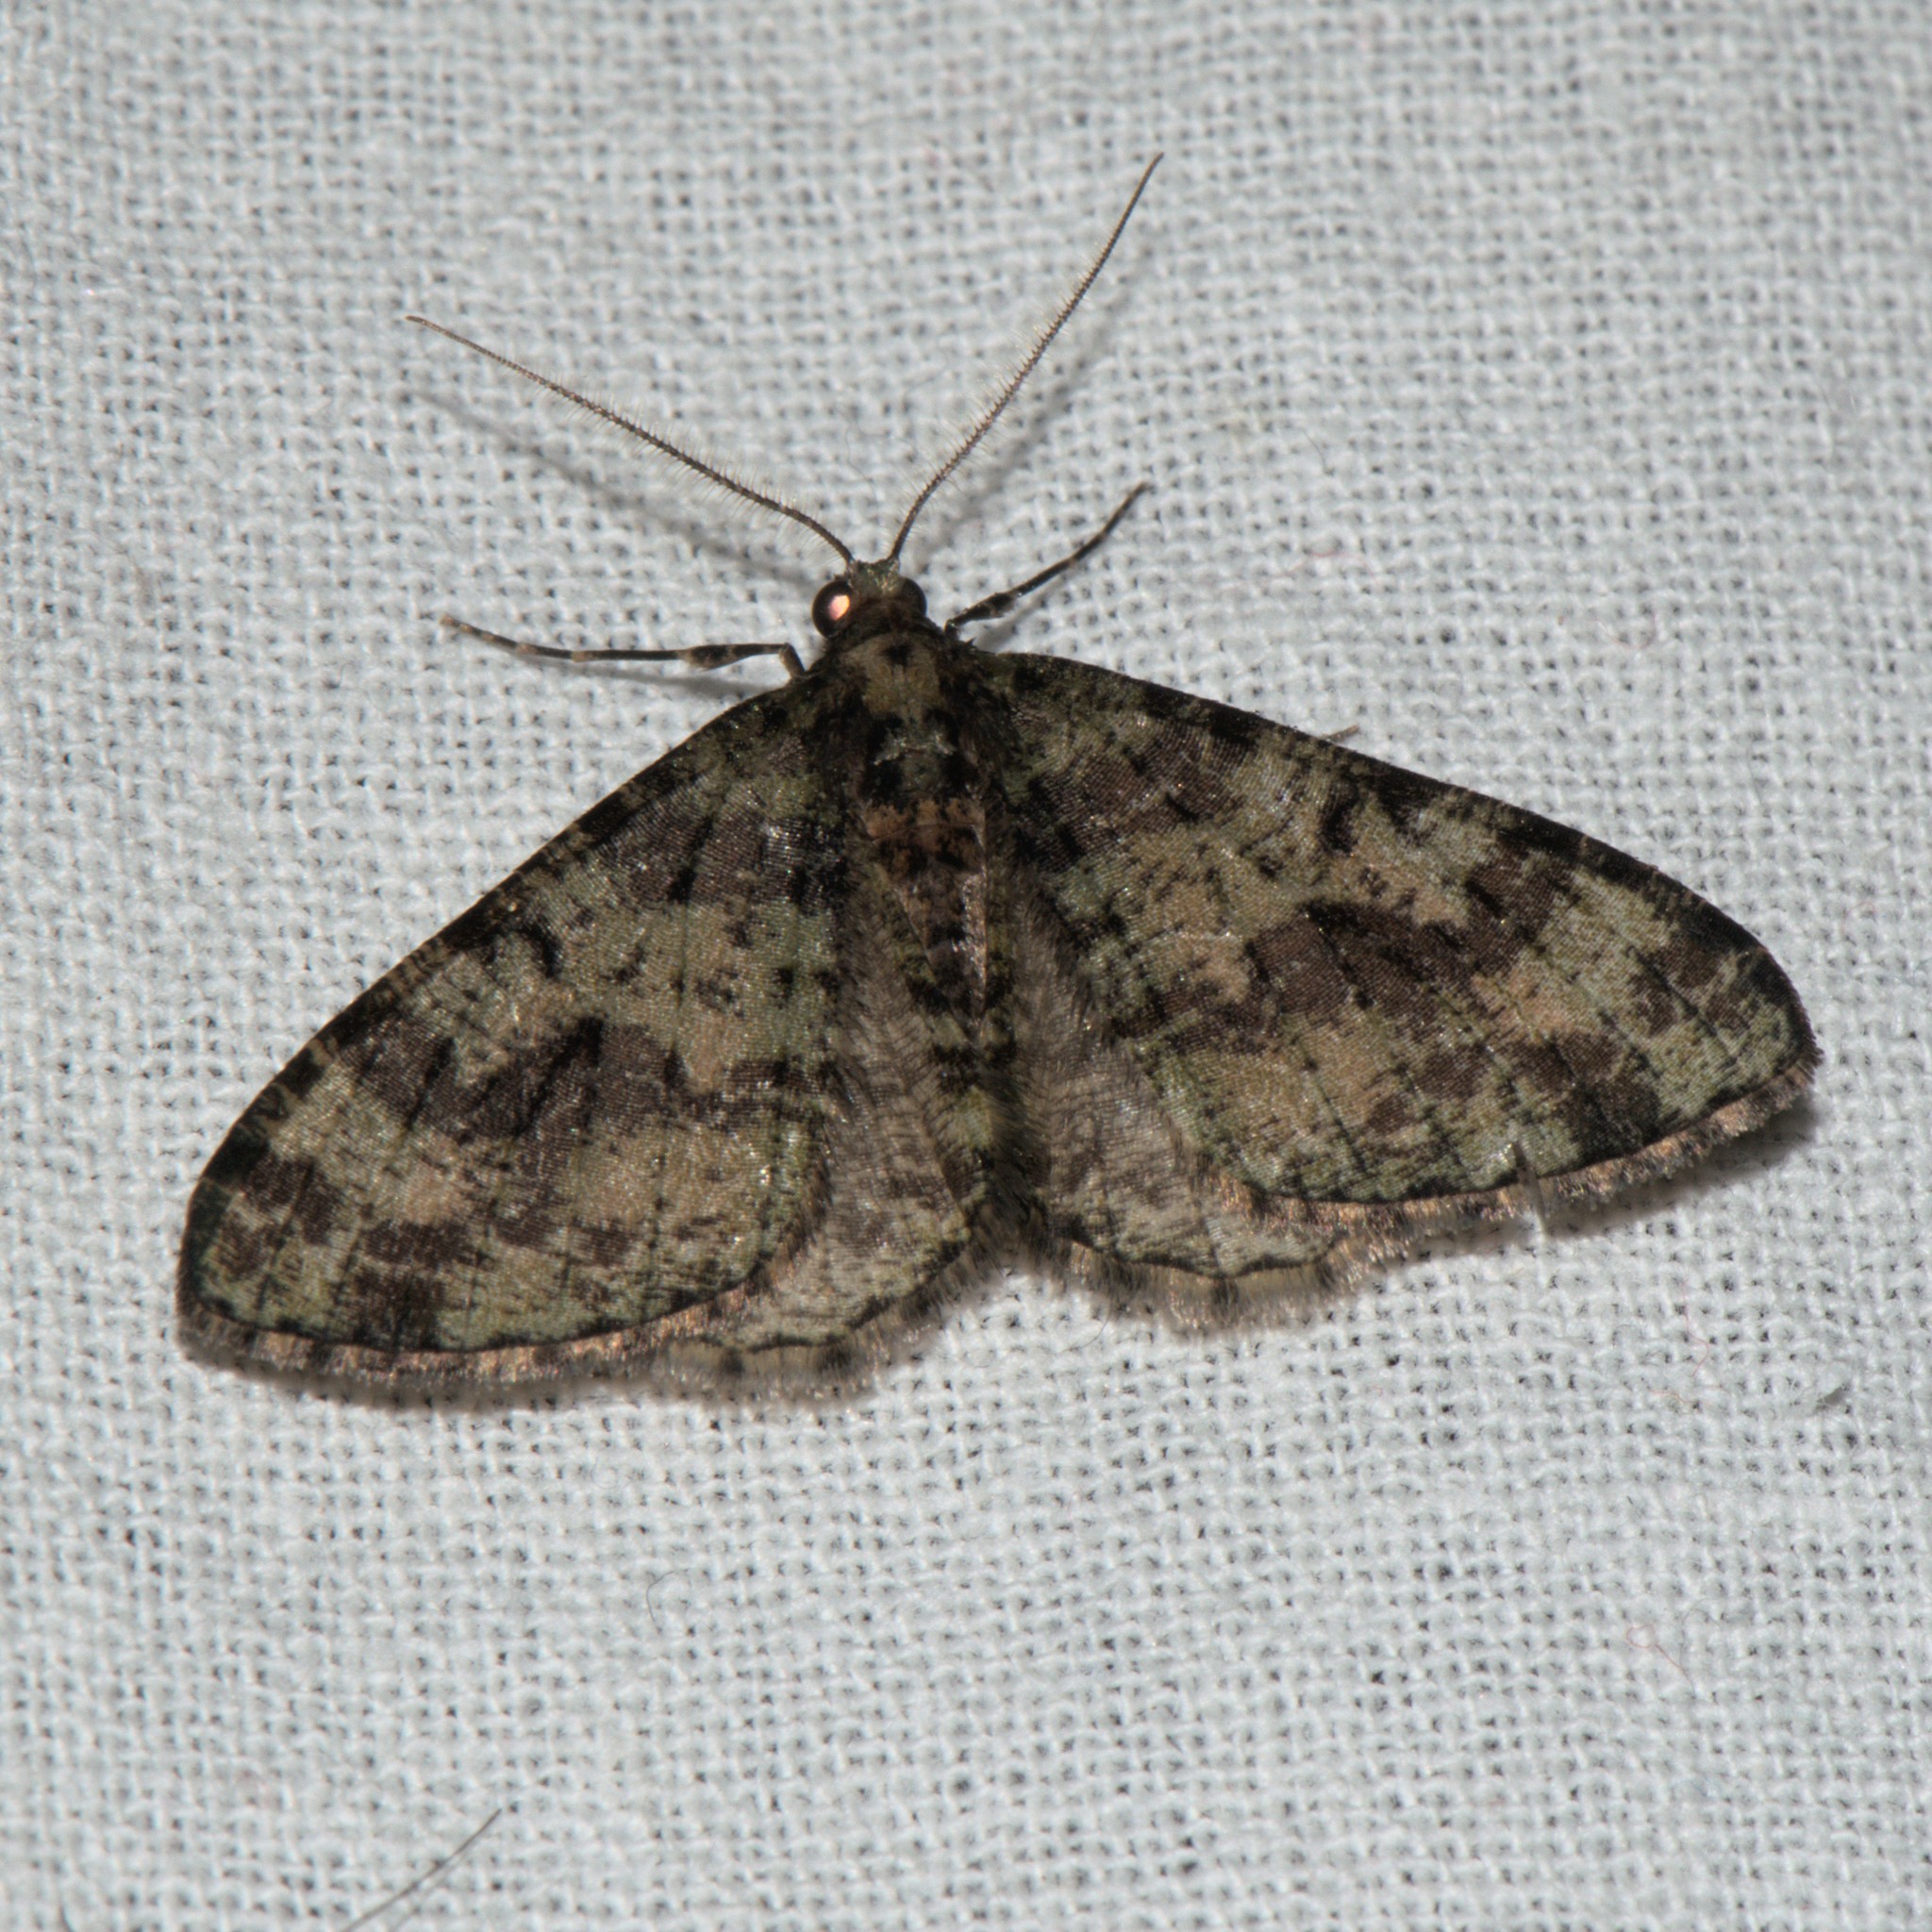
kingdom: Animalia
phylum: Arthropoda
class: Insecta
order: Lepidoptera
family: Geometridae
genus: Myrioblephara
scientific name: Myrioblephara duplexa
